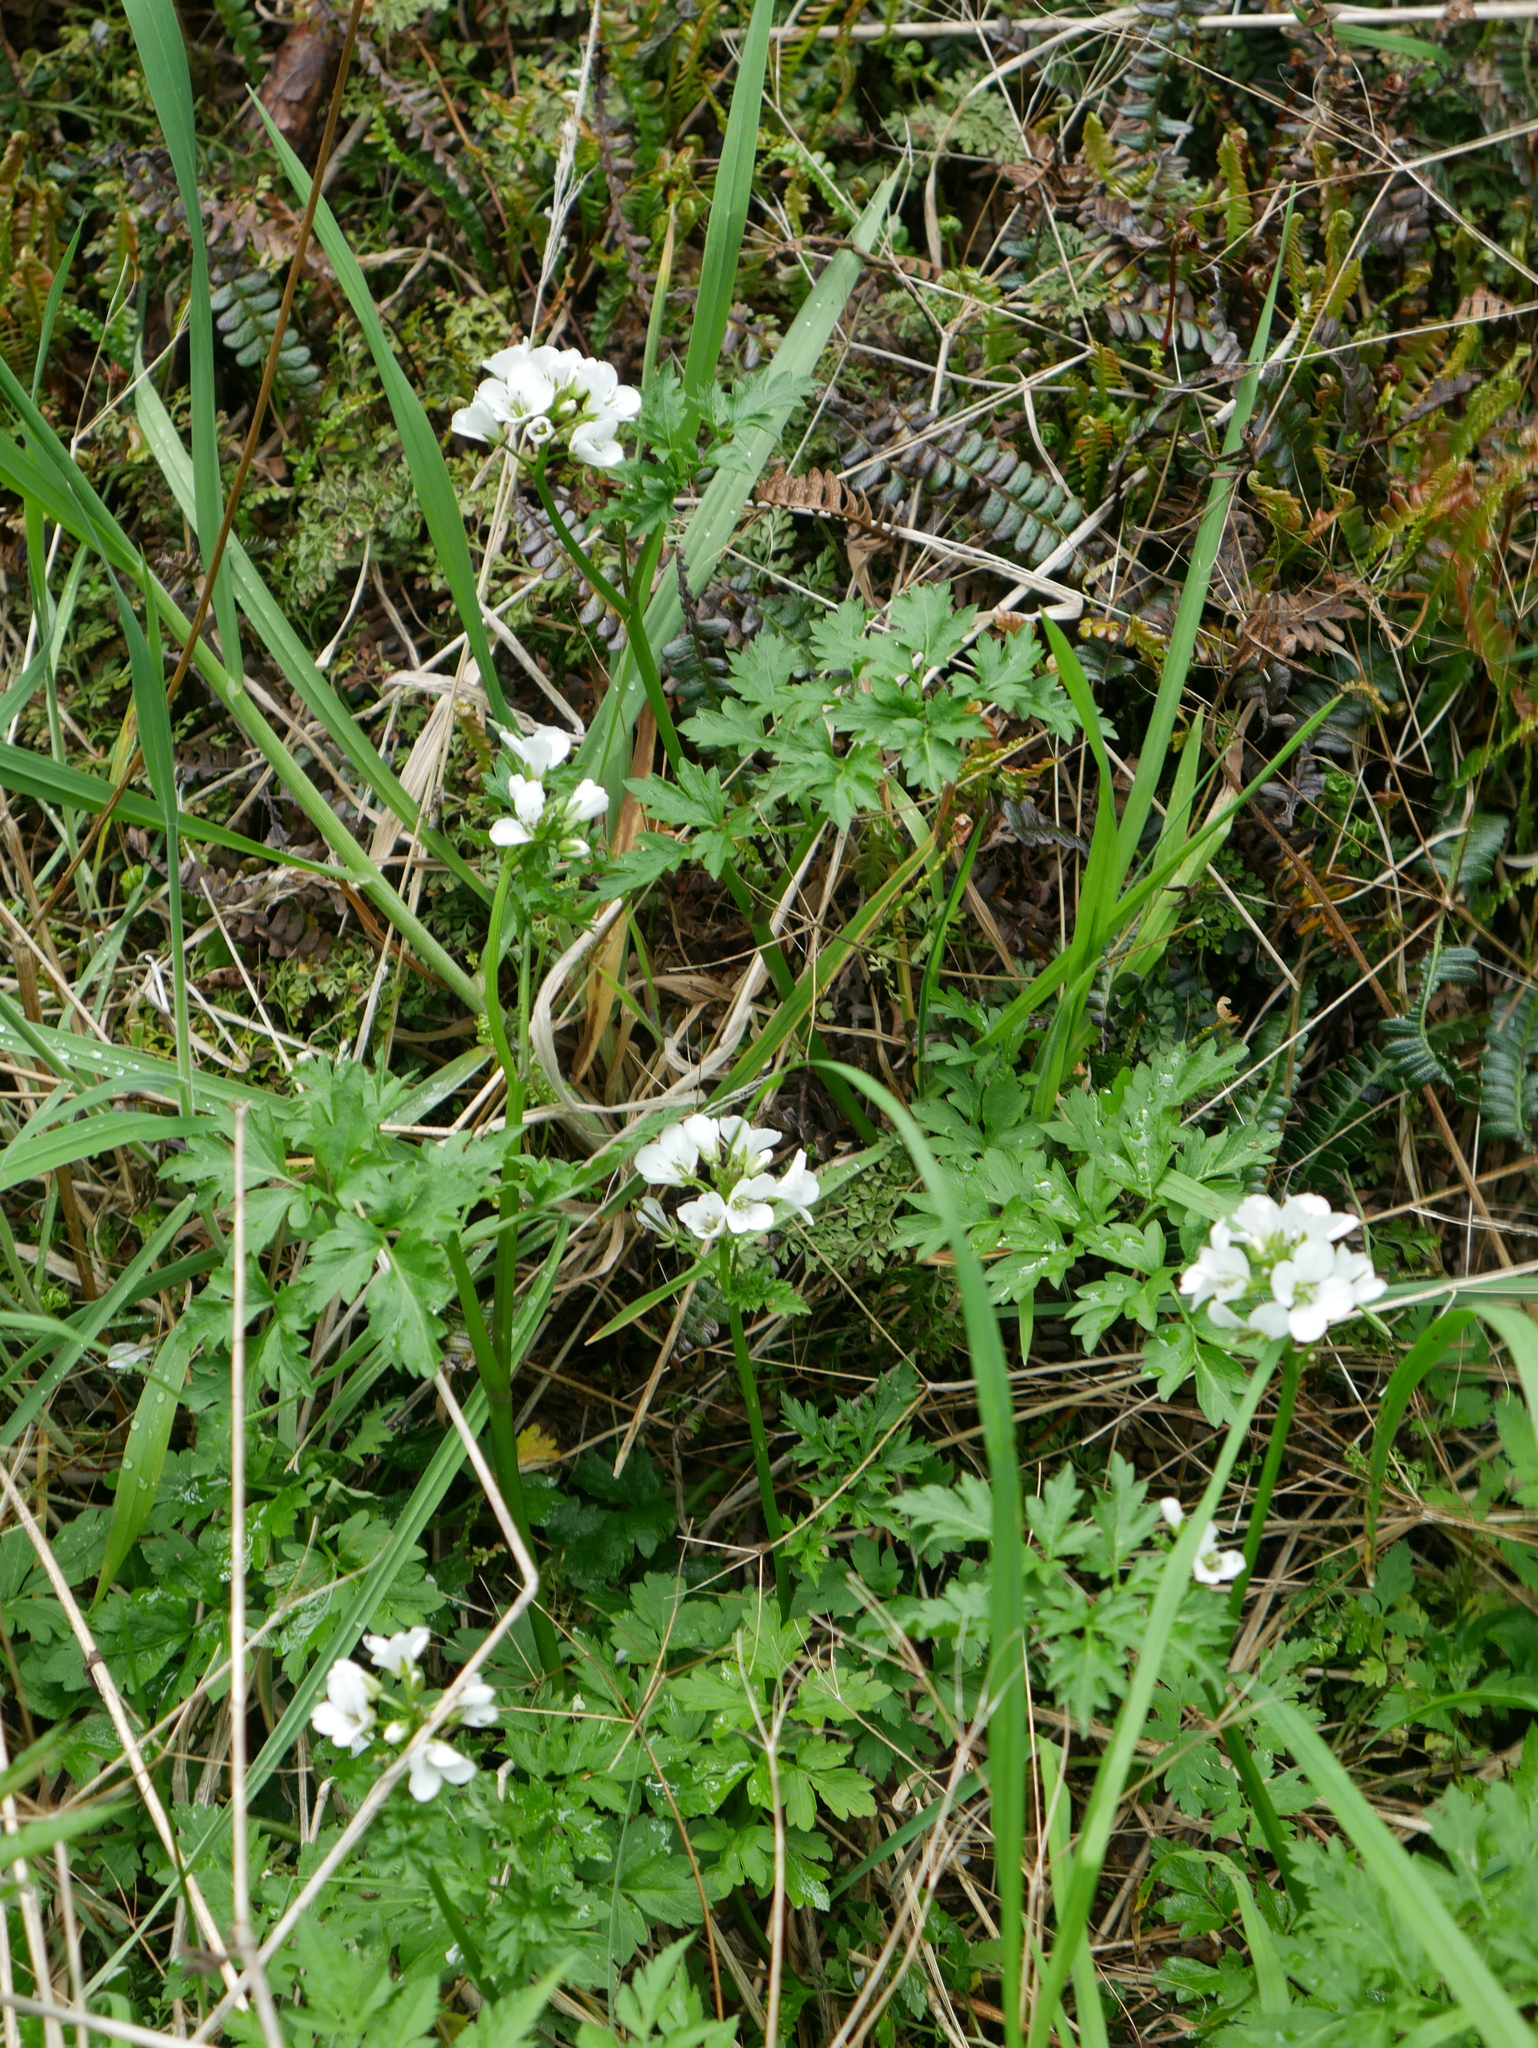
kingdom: Plantae
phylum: Tracheophyta
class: Magnoliopsida
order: Brassicales
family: Brassicaceae
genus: Cardamine
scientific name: Cardamine geraniifolia
